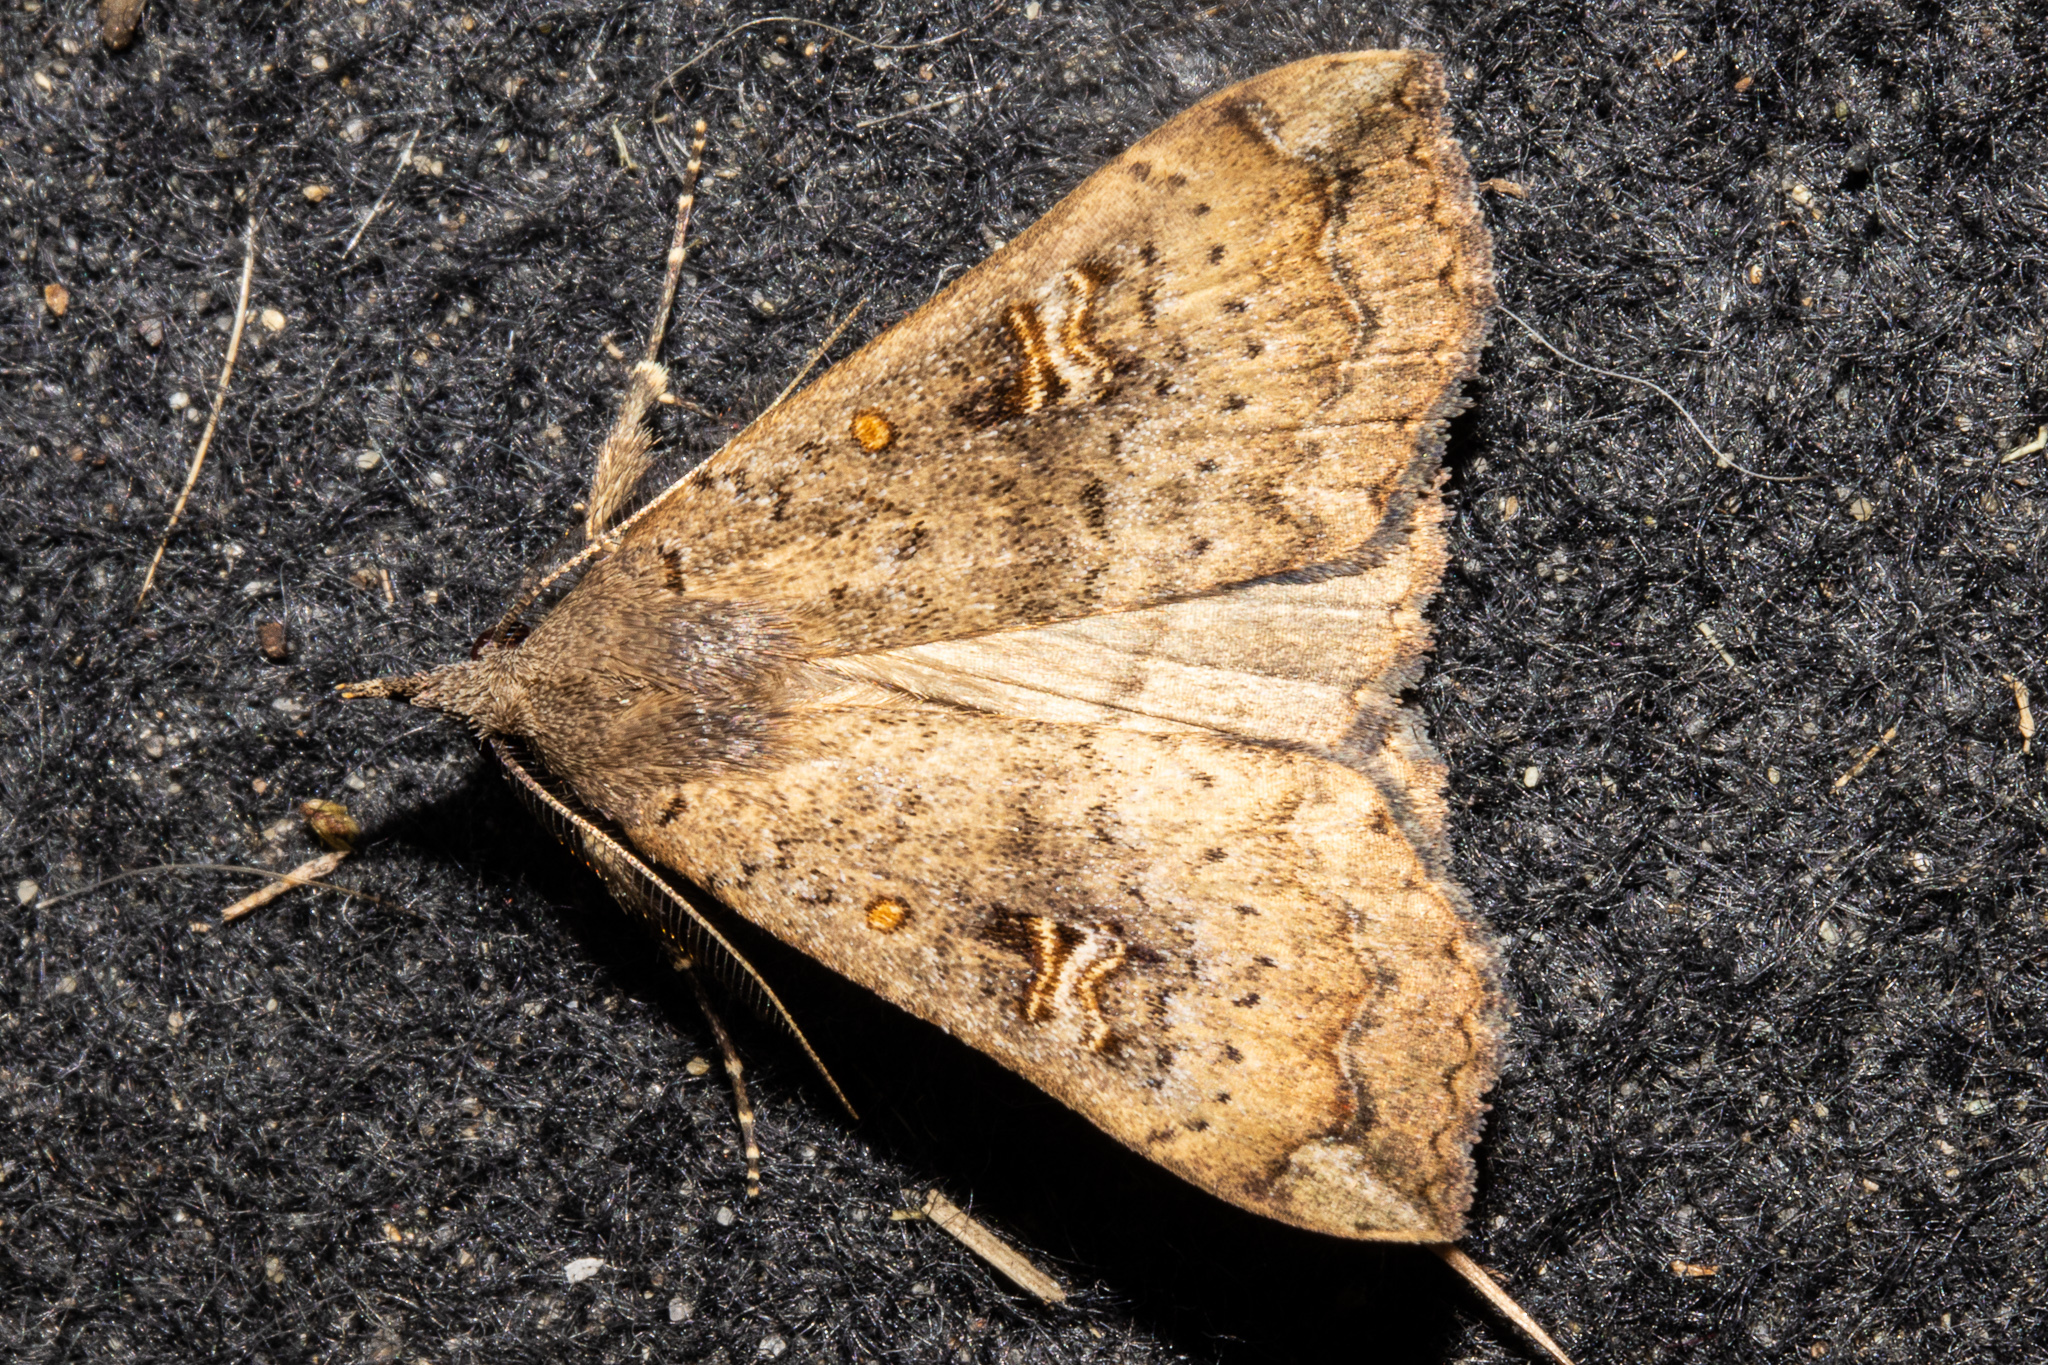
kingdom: Animalia
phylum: Arthropoda
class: Insecta
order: Lepidoptera
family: Erebidae
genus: Rhapsa
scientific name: Rhapsa scotosialis
